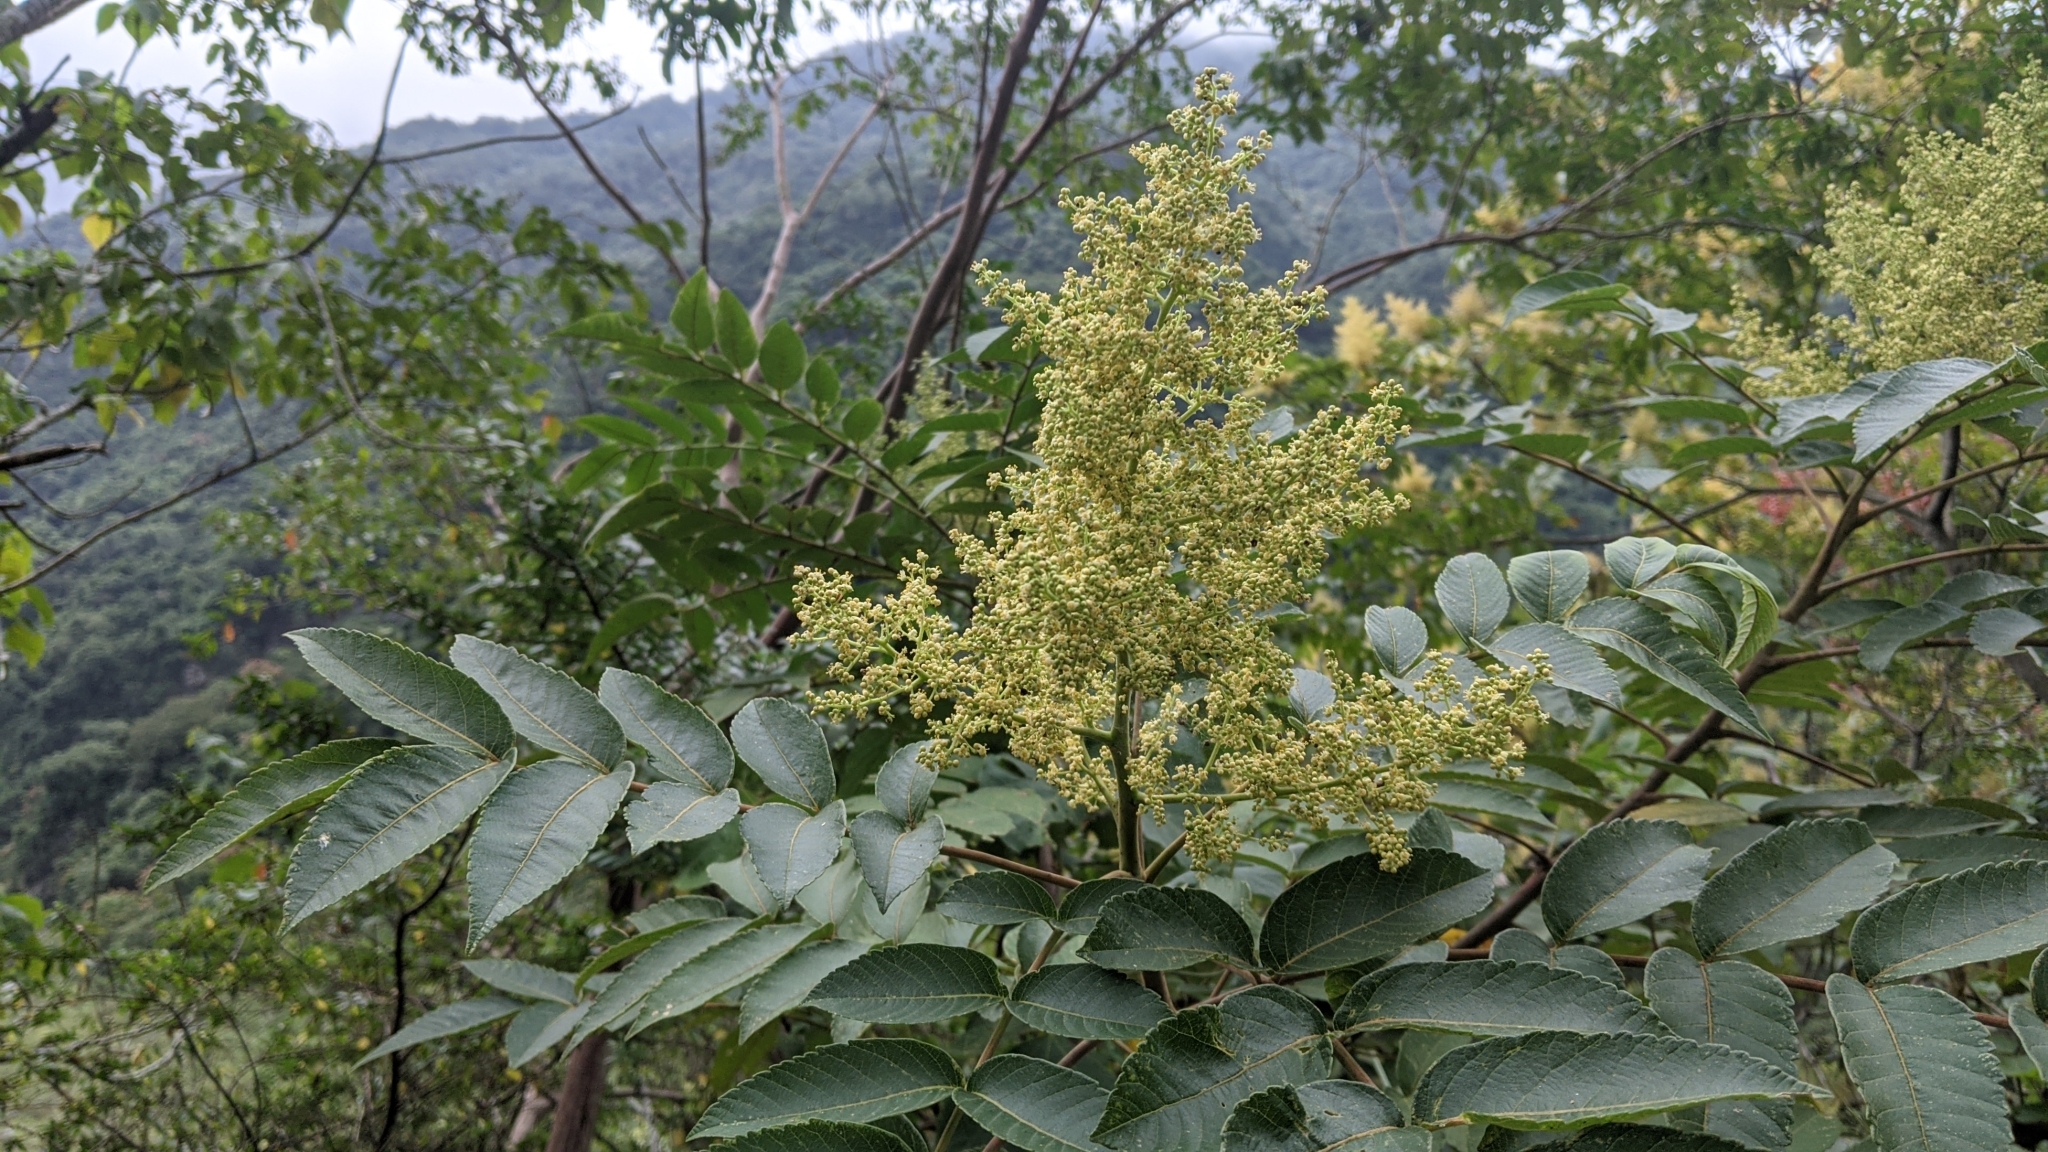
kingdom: Plantae
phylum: Tracheophyta
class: Magnoliopsida
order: Sapindales
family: Anacardiaceae
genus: Rhus
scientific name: Rhus chinensis
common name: Chinese gall
